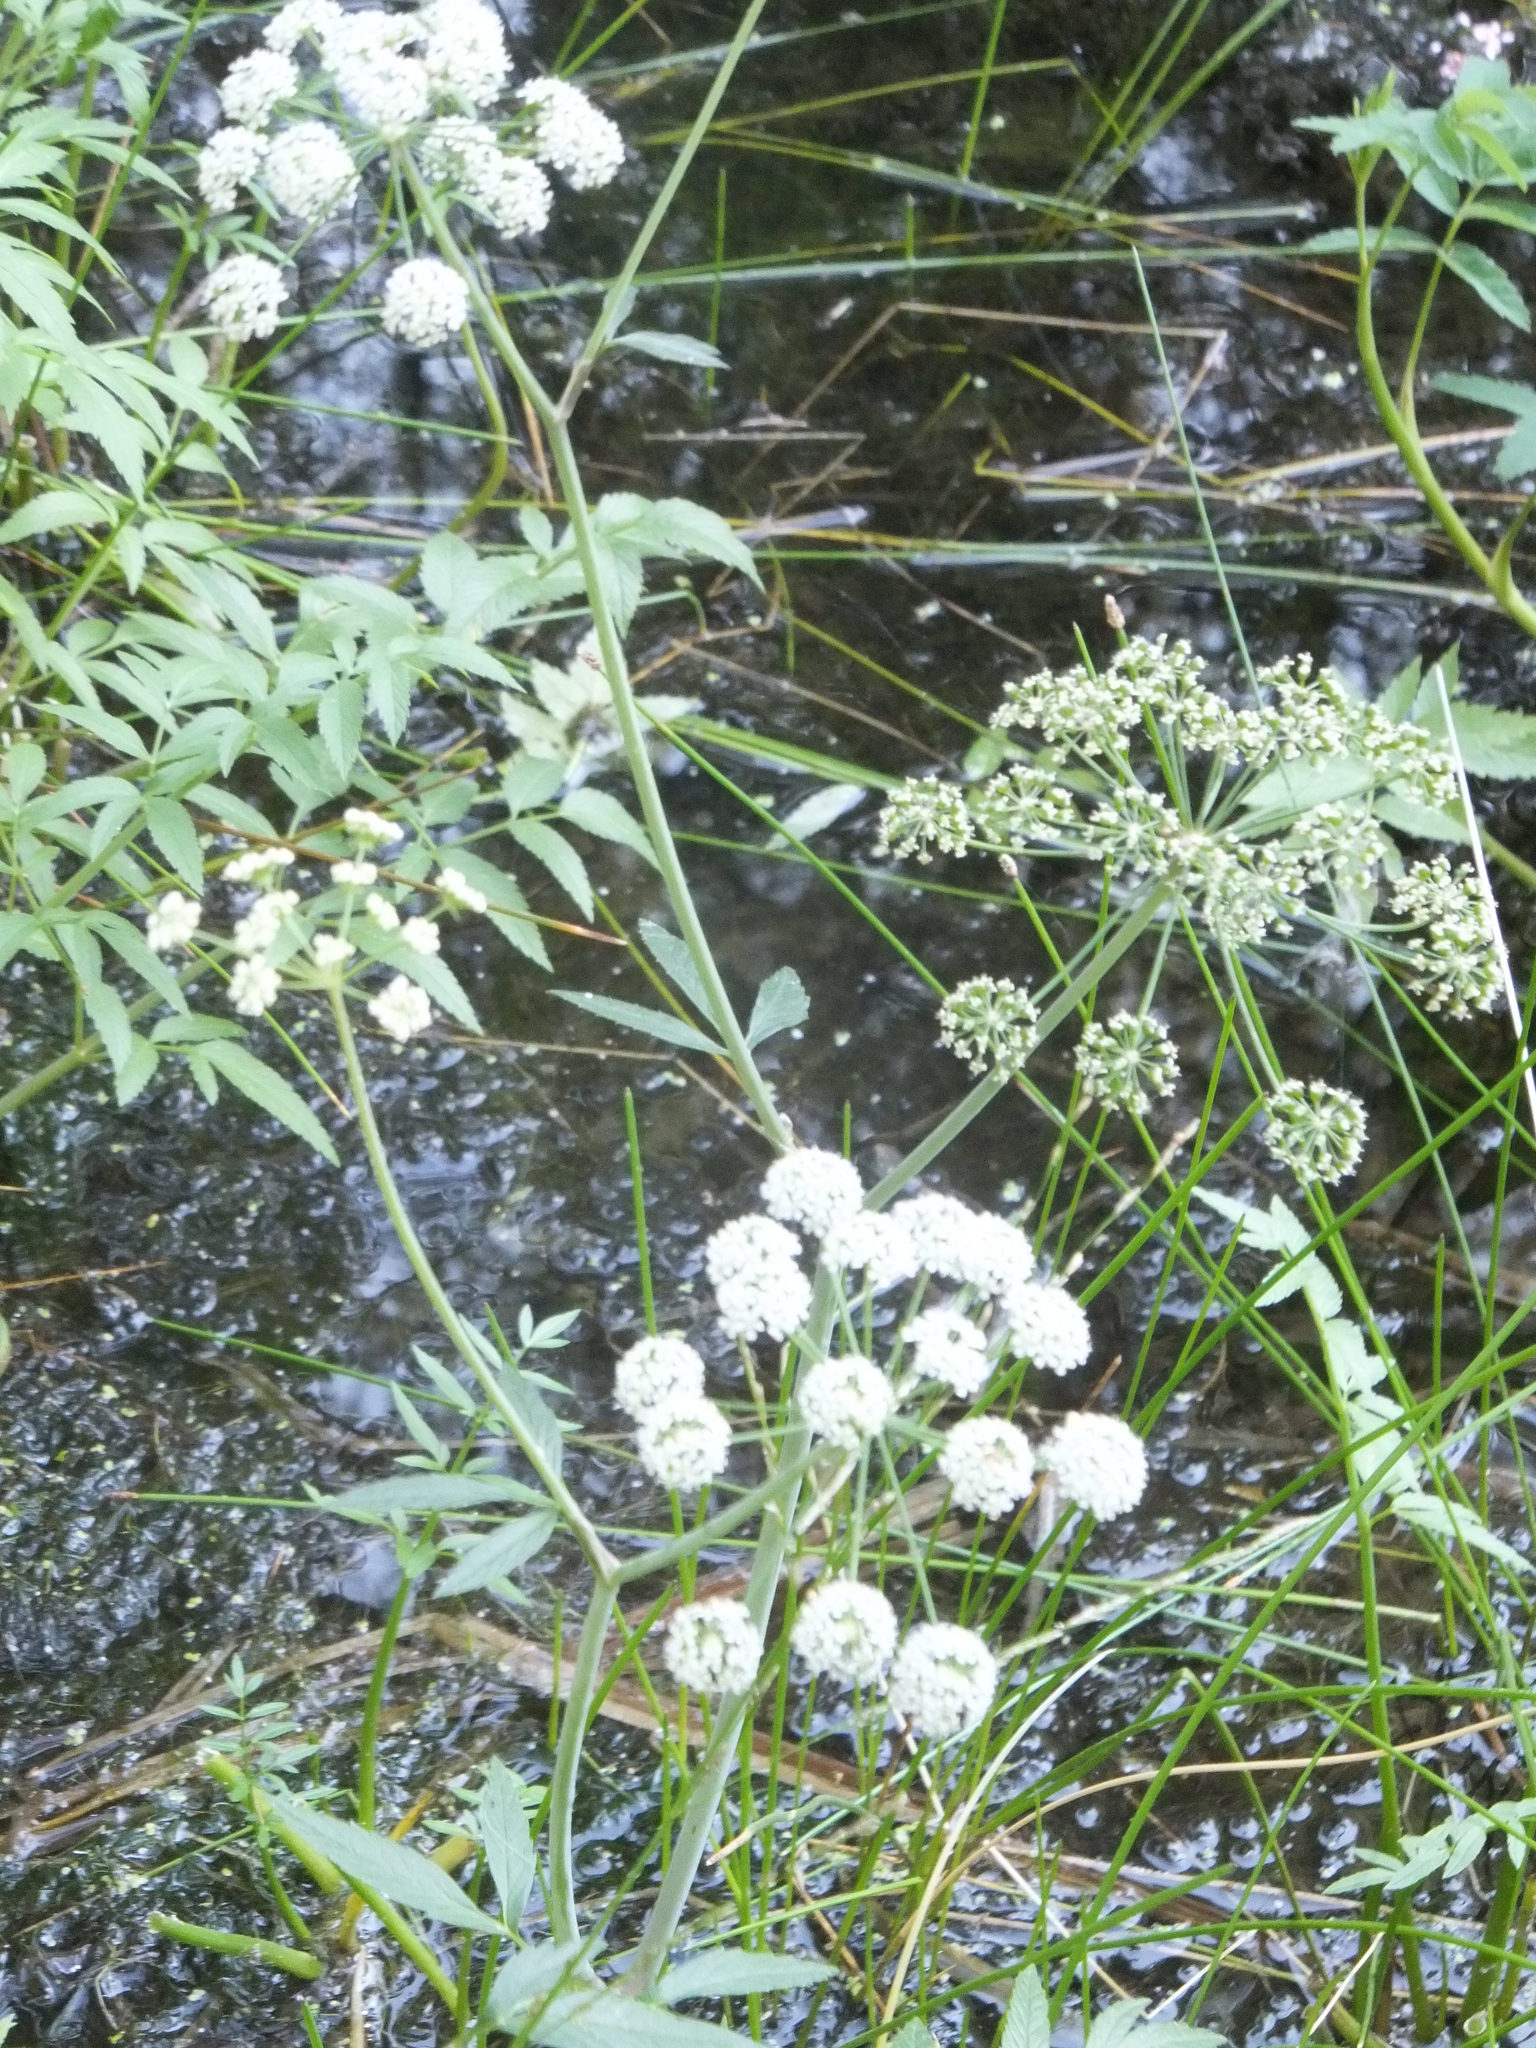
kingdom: Plantae
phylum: Tracheophyta
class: Magnoliopsida
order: Apiales
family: Apiaceae
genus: Cicuta
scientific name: Cicuta douglasii
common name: Western water-hemlock
